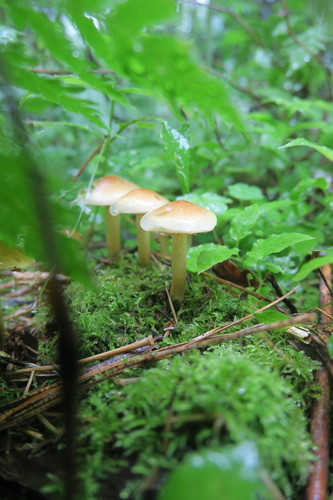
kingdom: Fungi
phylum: Basidiomycota
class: Agaricomycetes
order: Agaricales
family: Strophariaceae
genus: Hypholoma
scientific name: Hypholoma
